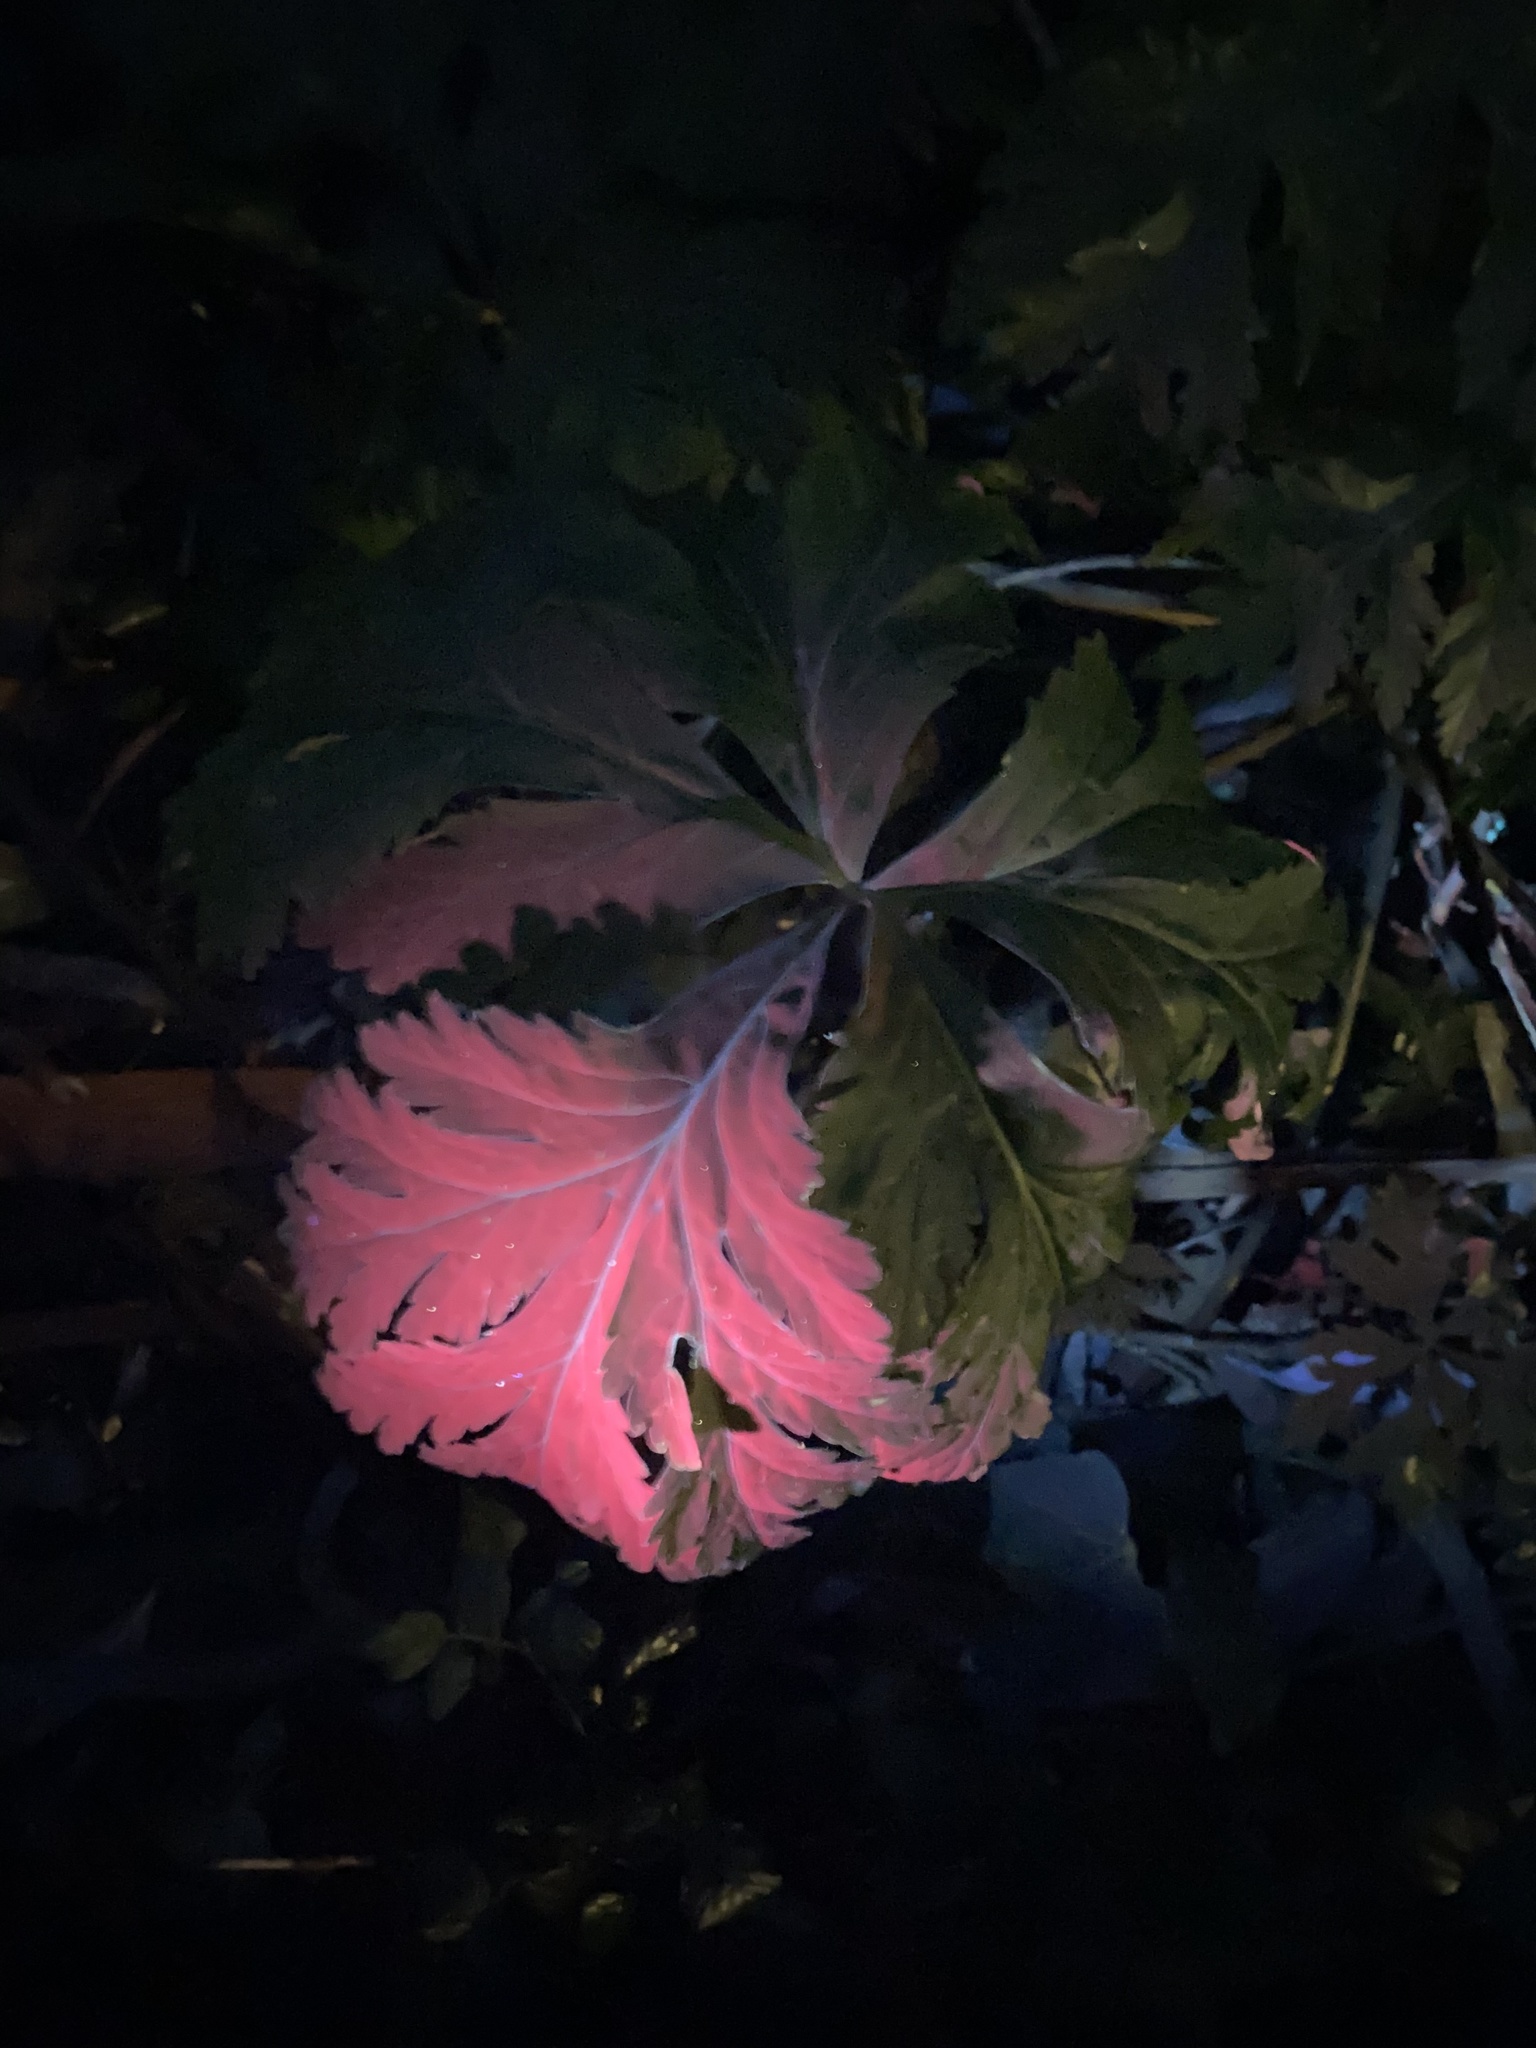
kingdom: Plantae
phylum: Tracheophyta
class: Magnoliopsida
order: Geraniales
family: Geraniaceae
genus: Geranium
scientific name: Geranium maderense
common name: Giant herb-robert
